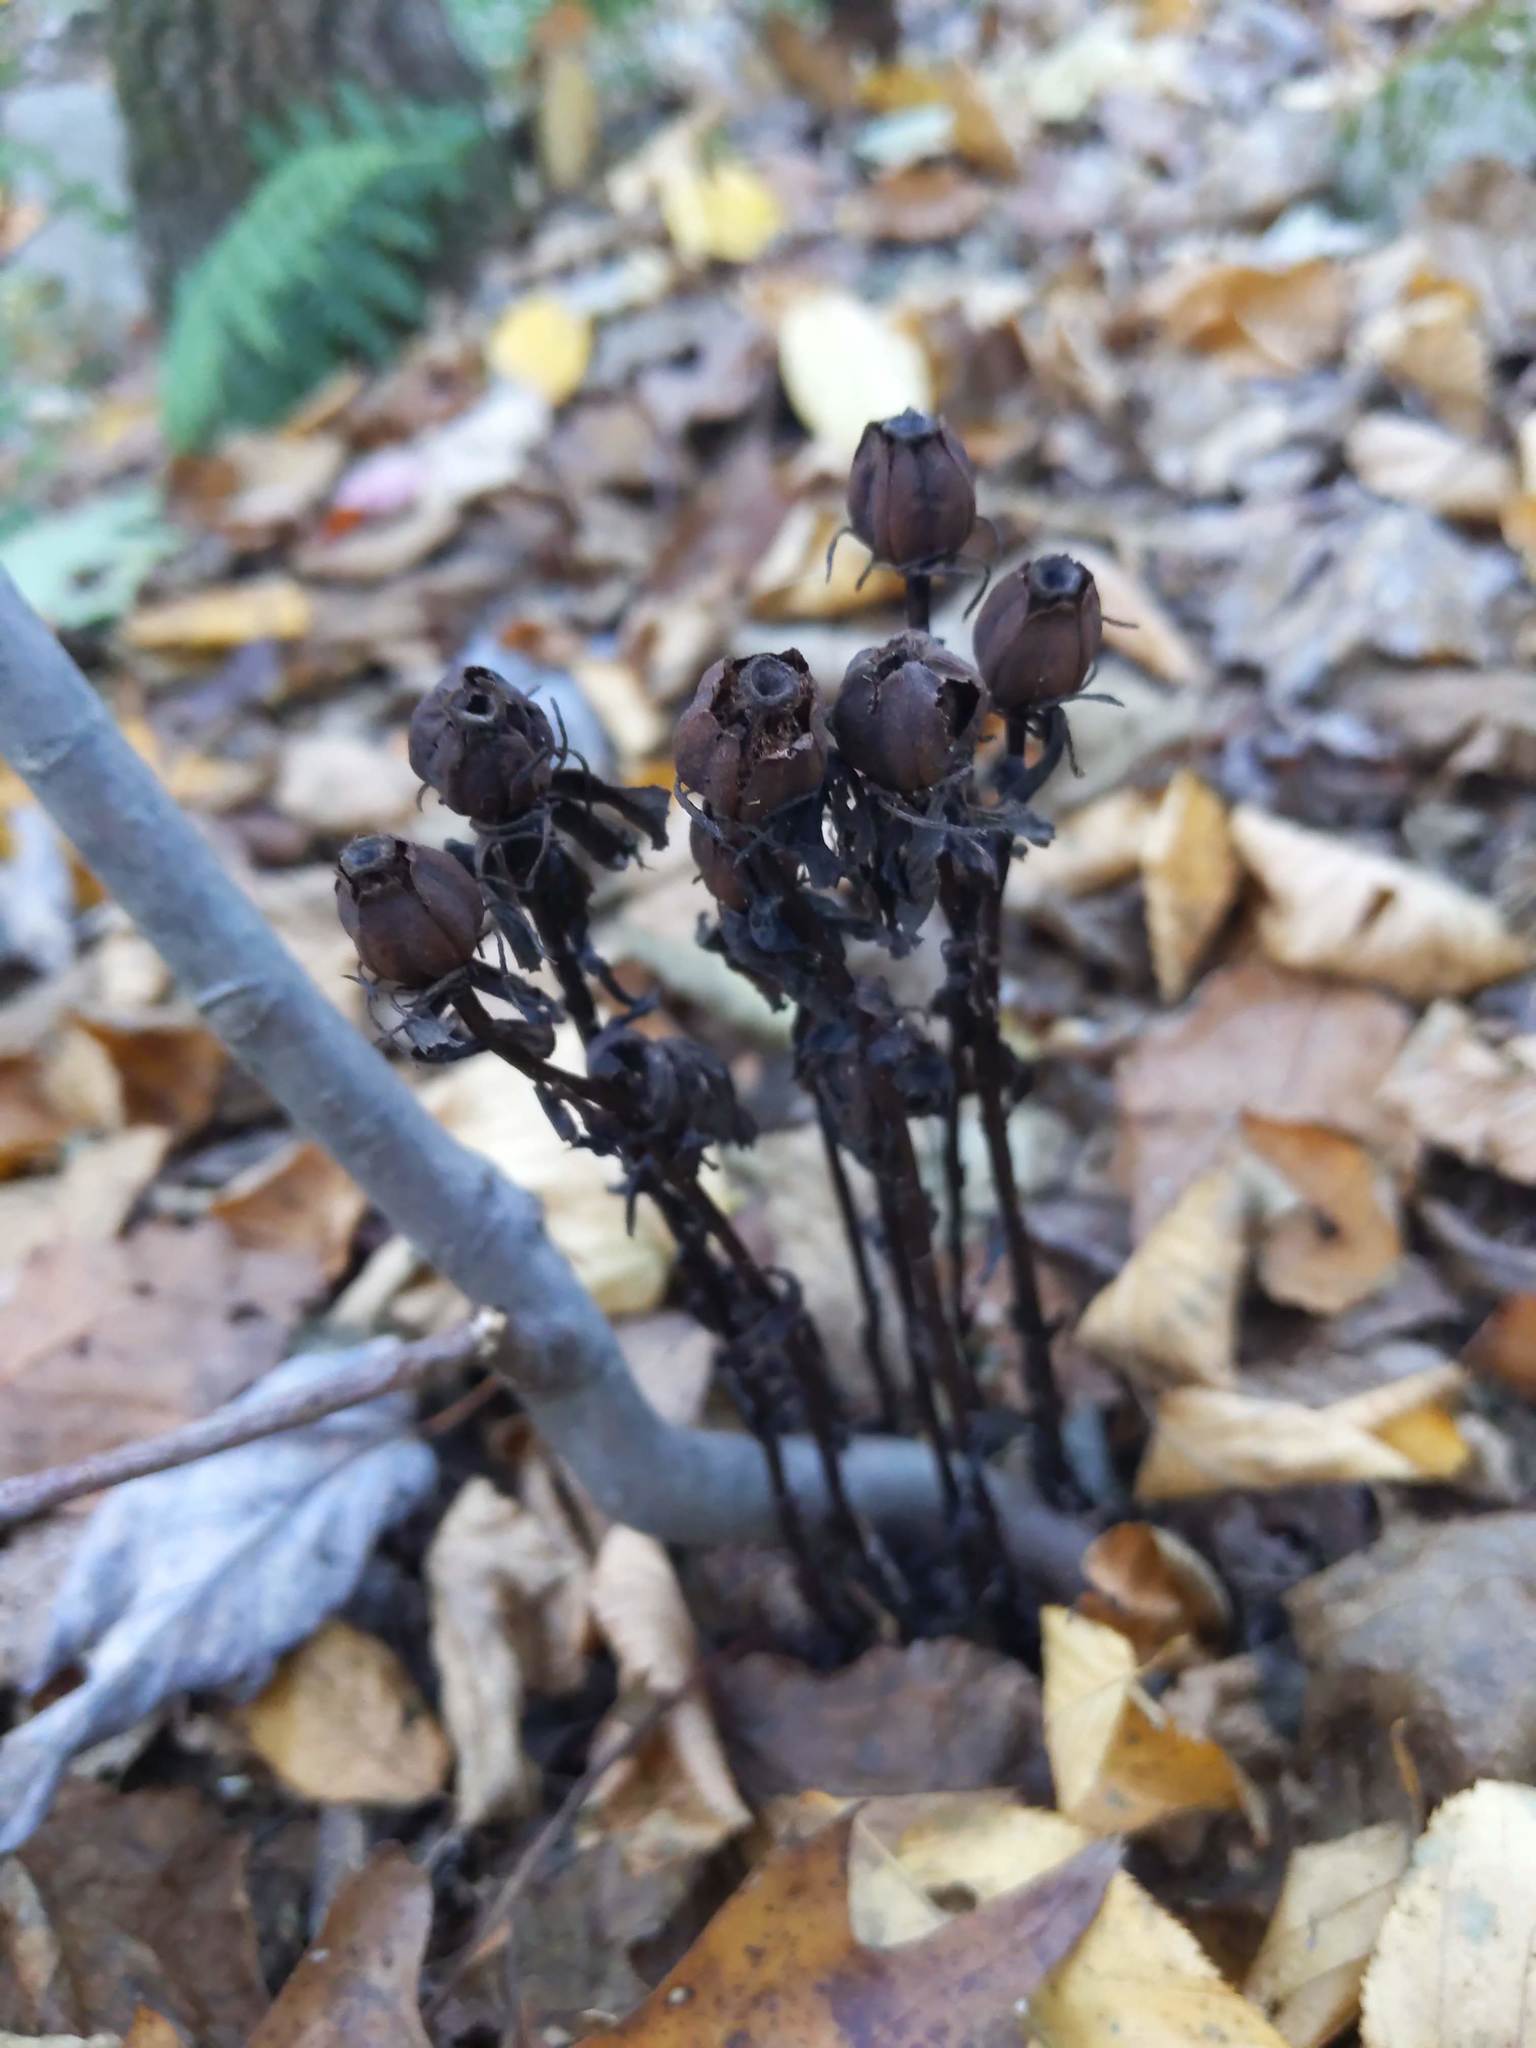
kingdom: Plantae
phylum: Tracheophyta
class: Magnoliopsida
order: Ericales
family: Ericaceae
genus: Monotropa
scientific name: Monotropa uniflora
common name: Convulsion root
